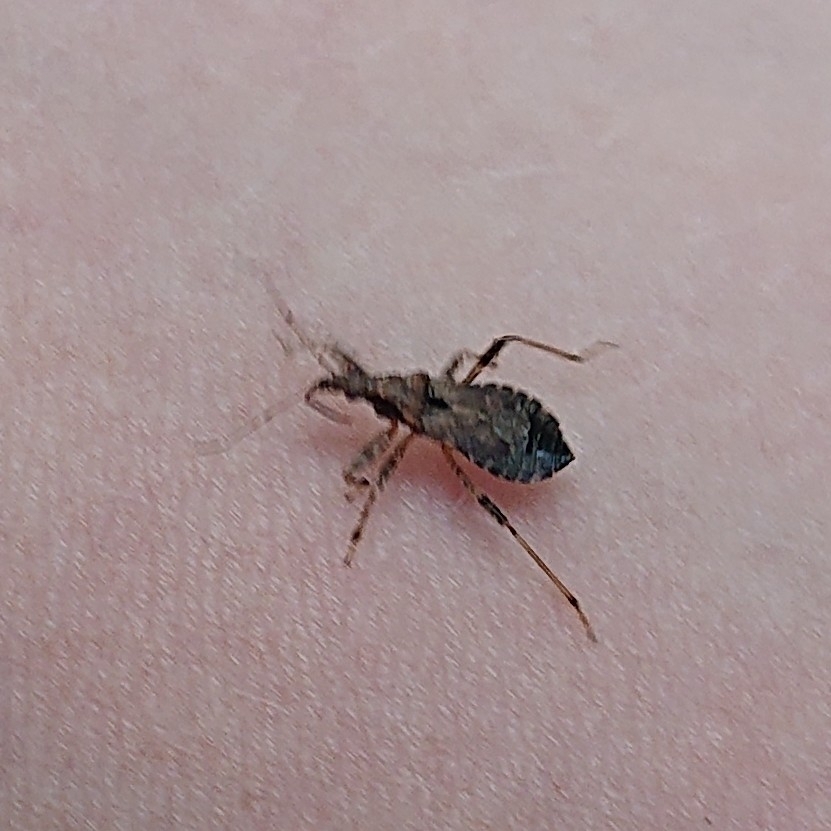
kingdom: Animalia
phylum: Arthropoda
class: Insecta
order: Hemiptera
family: Nabidae
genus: Himacerus
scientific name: Himacerus mirmicoides
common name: Ant damsel bug
